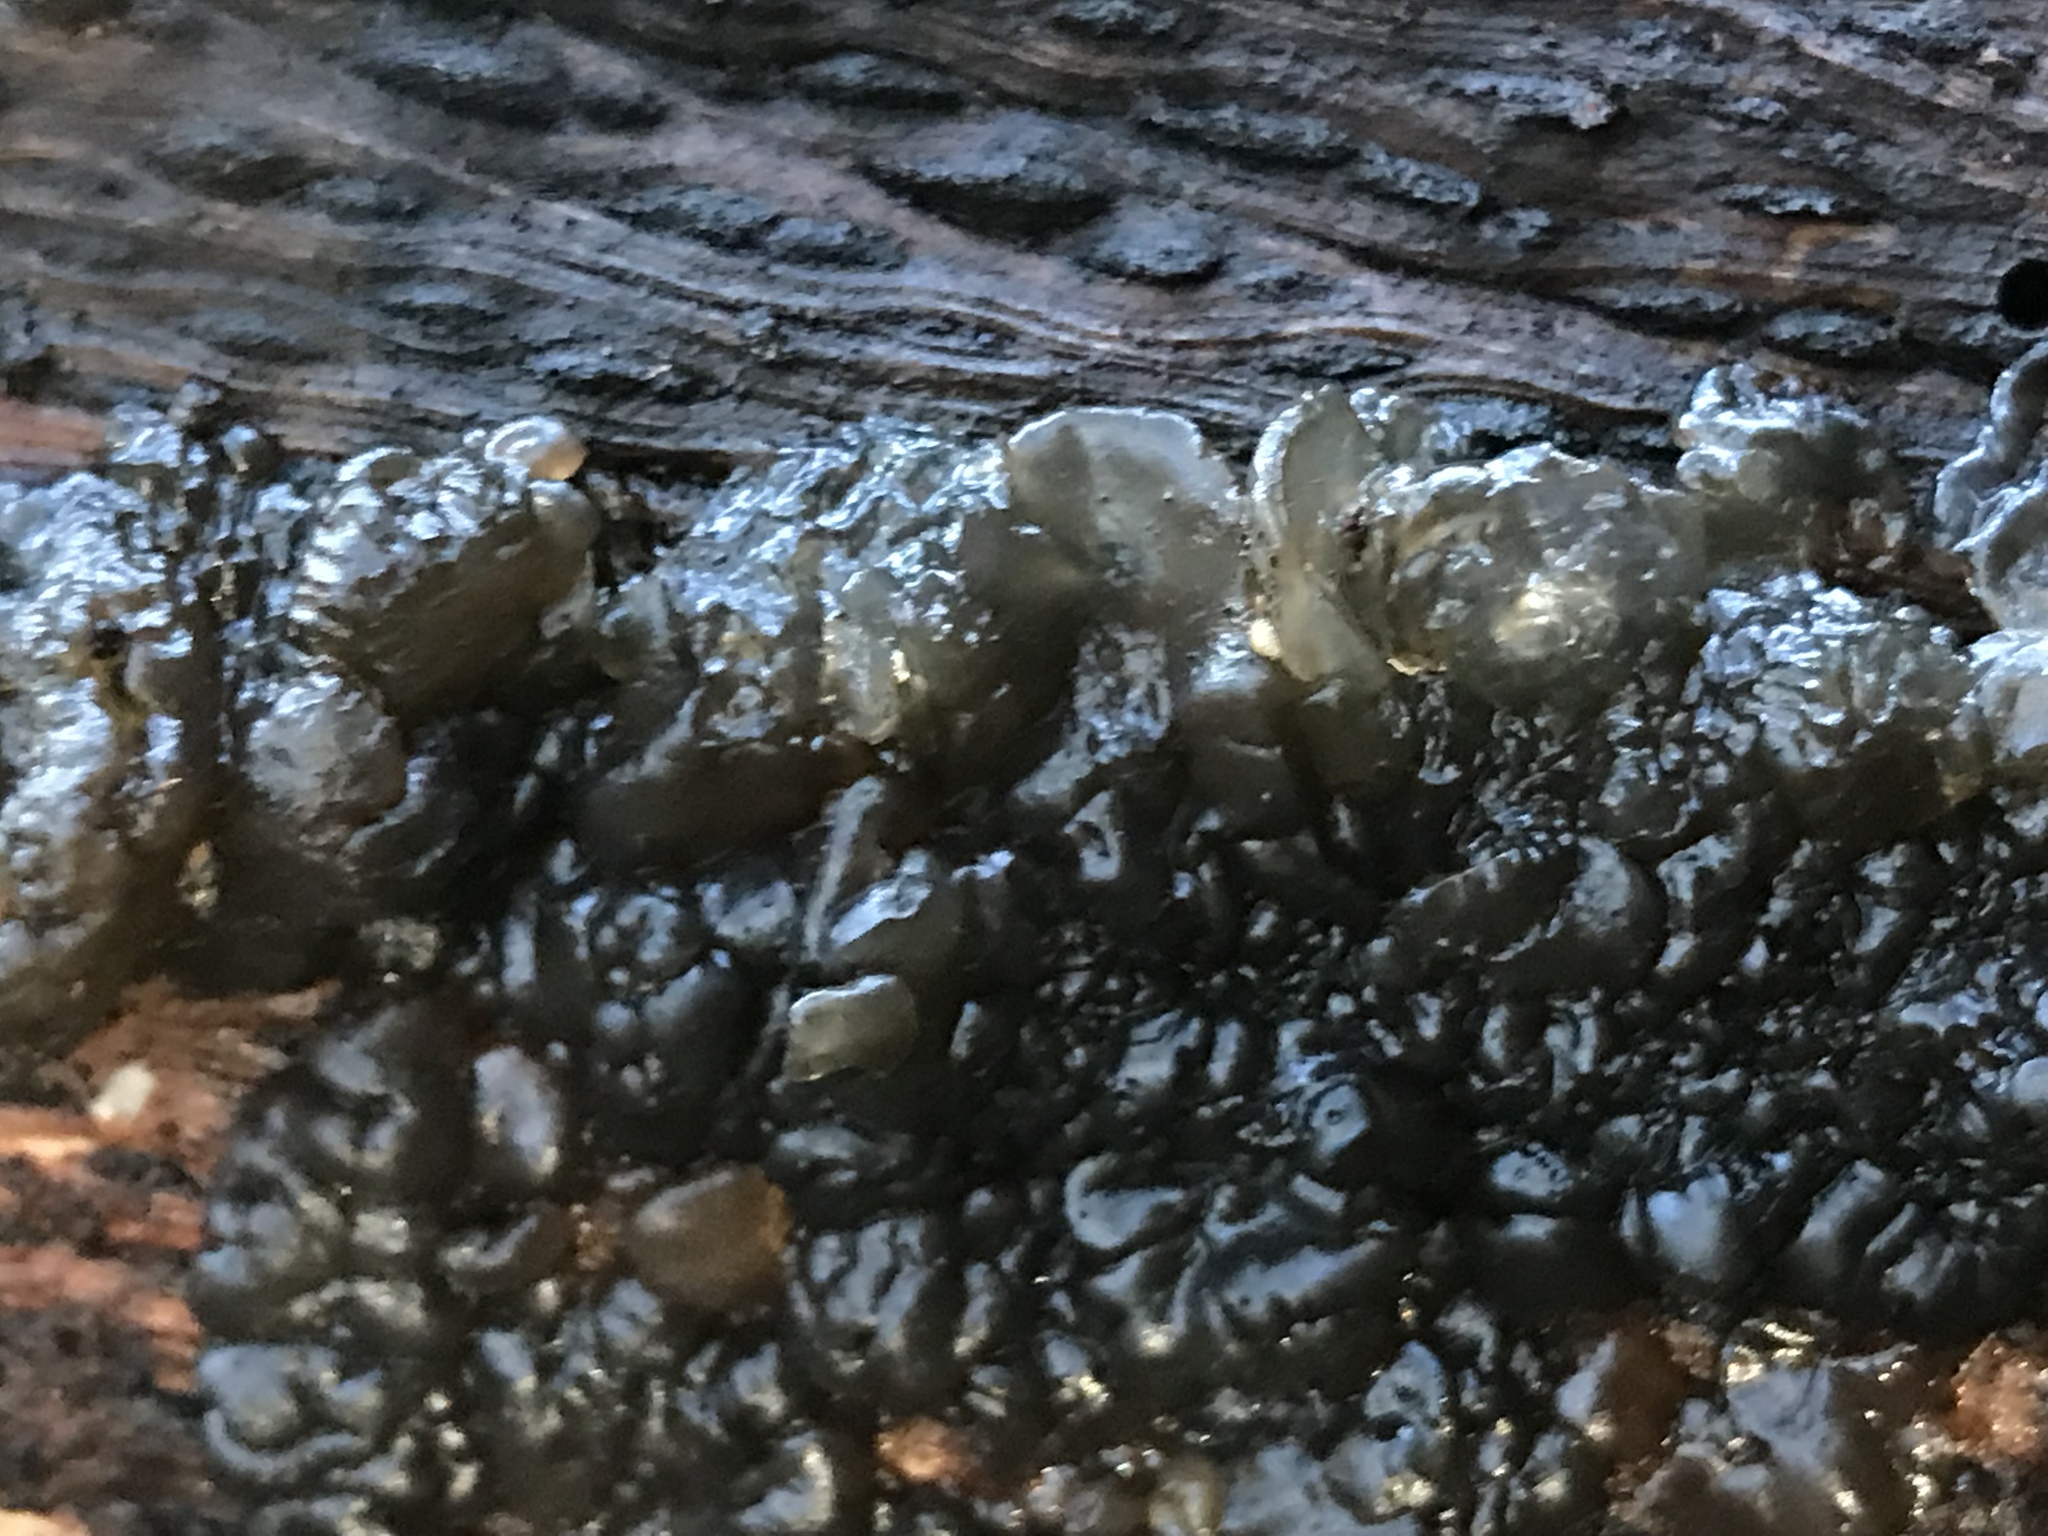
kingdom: Fungi
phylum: Basidiomycota
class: Agaricomycetes
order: Auriculariales
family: Auriculariaceae
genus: Exidia
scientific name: Exidia glandulosa
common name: Witches' butter
